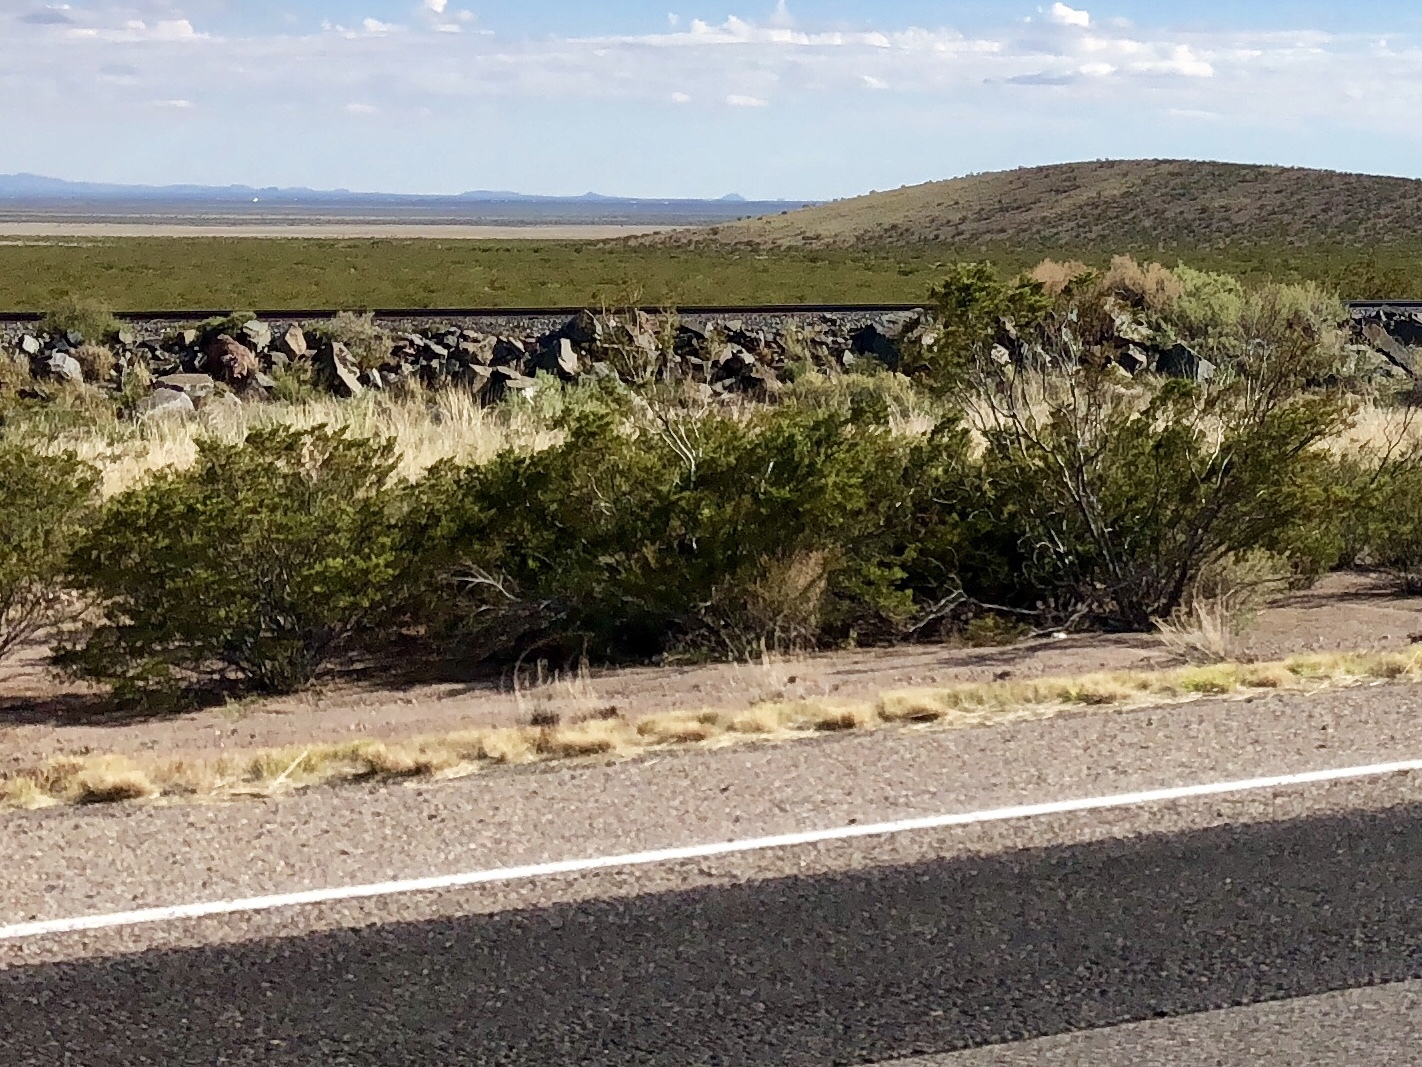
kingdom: Plantae
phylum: Tracheophyta
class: Magnoliopsida
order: Zygophyllales
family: Zygophyllaceae
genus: Larrea
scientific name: Larrea tridentata
